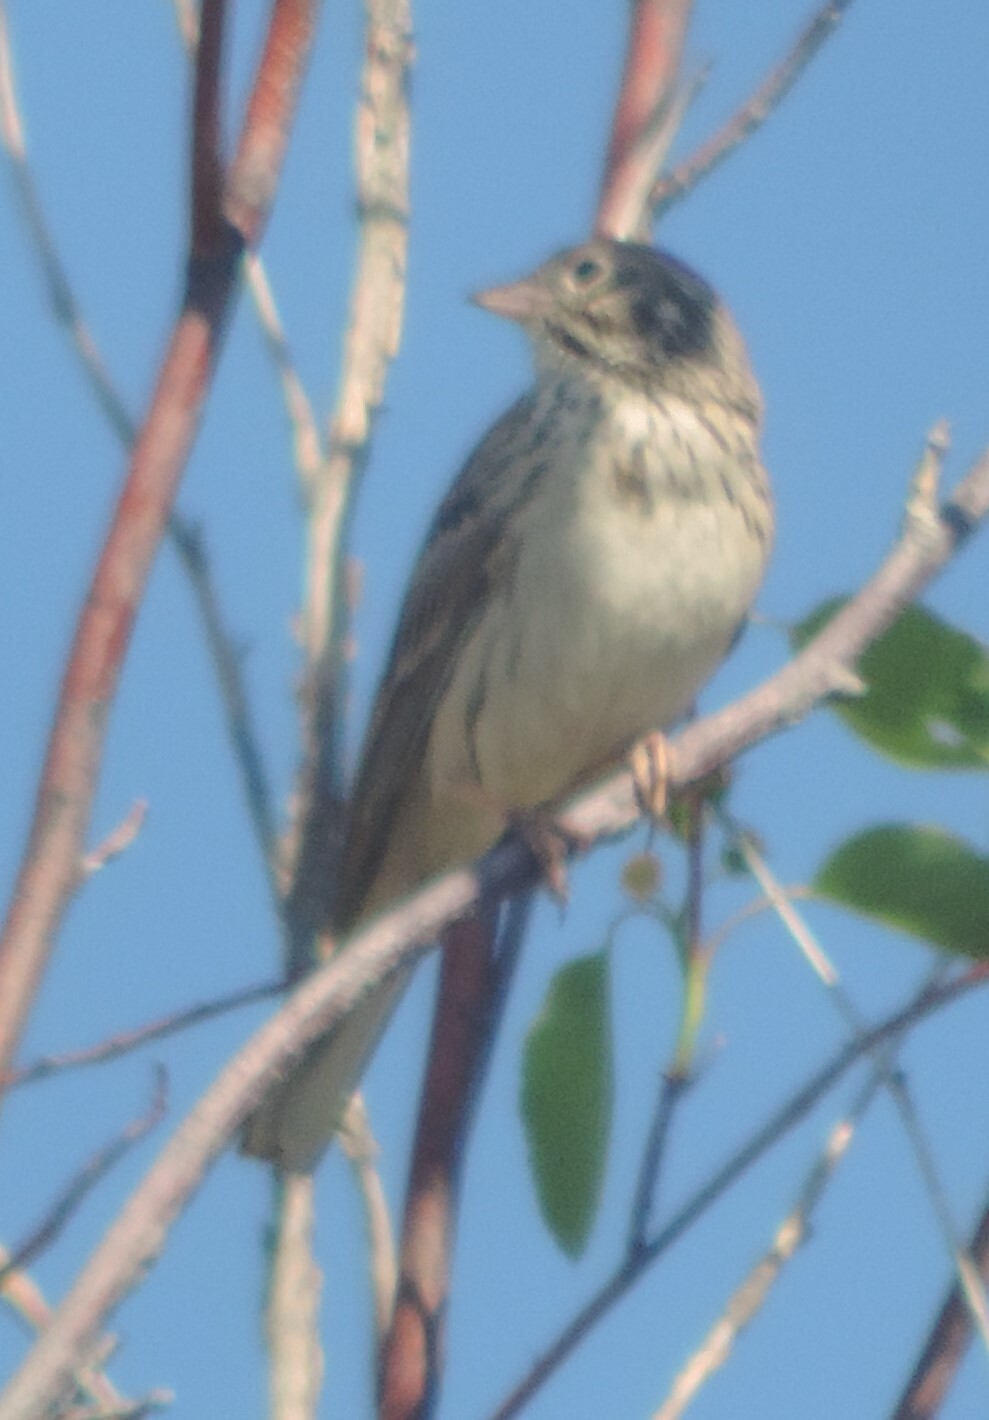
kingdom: Animalia
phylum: Chordata
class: Aves
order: Passeriformes
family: Passerellidae
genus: Pooecetes
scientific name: Pooecetes gramineus
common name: Vesper sparrow
